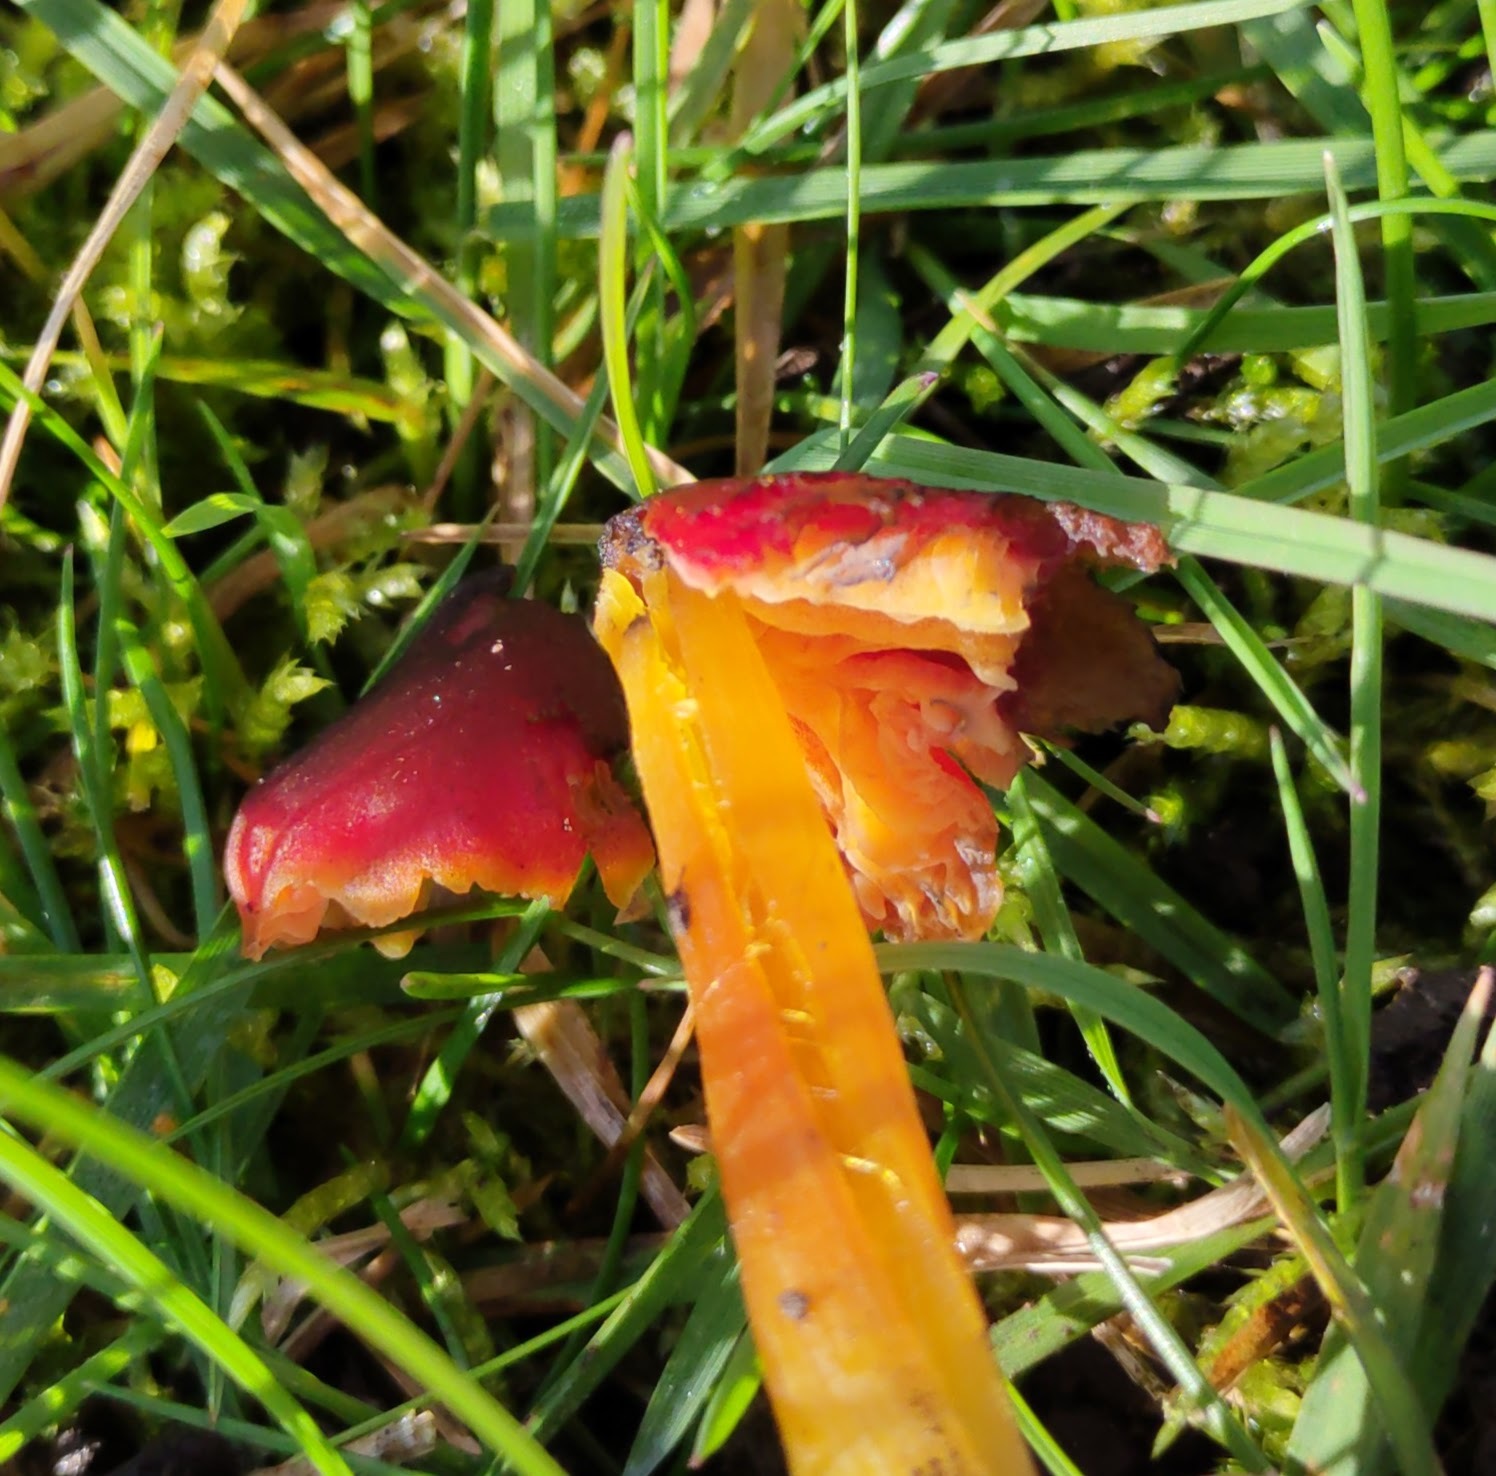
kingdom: Fungi
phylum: Basidiomycota
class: Agaricomycetes
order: Agaricales
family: Hygrophoraceae
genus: Hygrocybe
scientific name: Hygrocybe conica
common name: Blackening wax-cap
